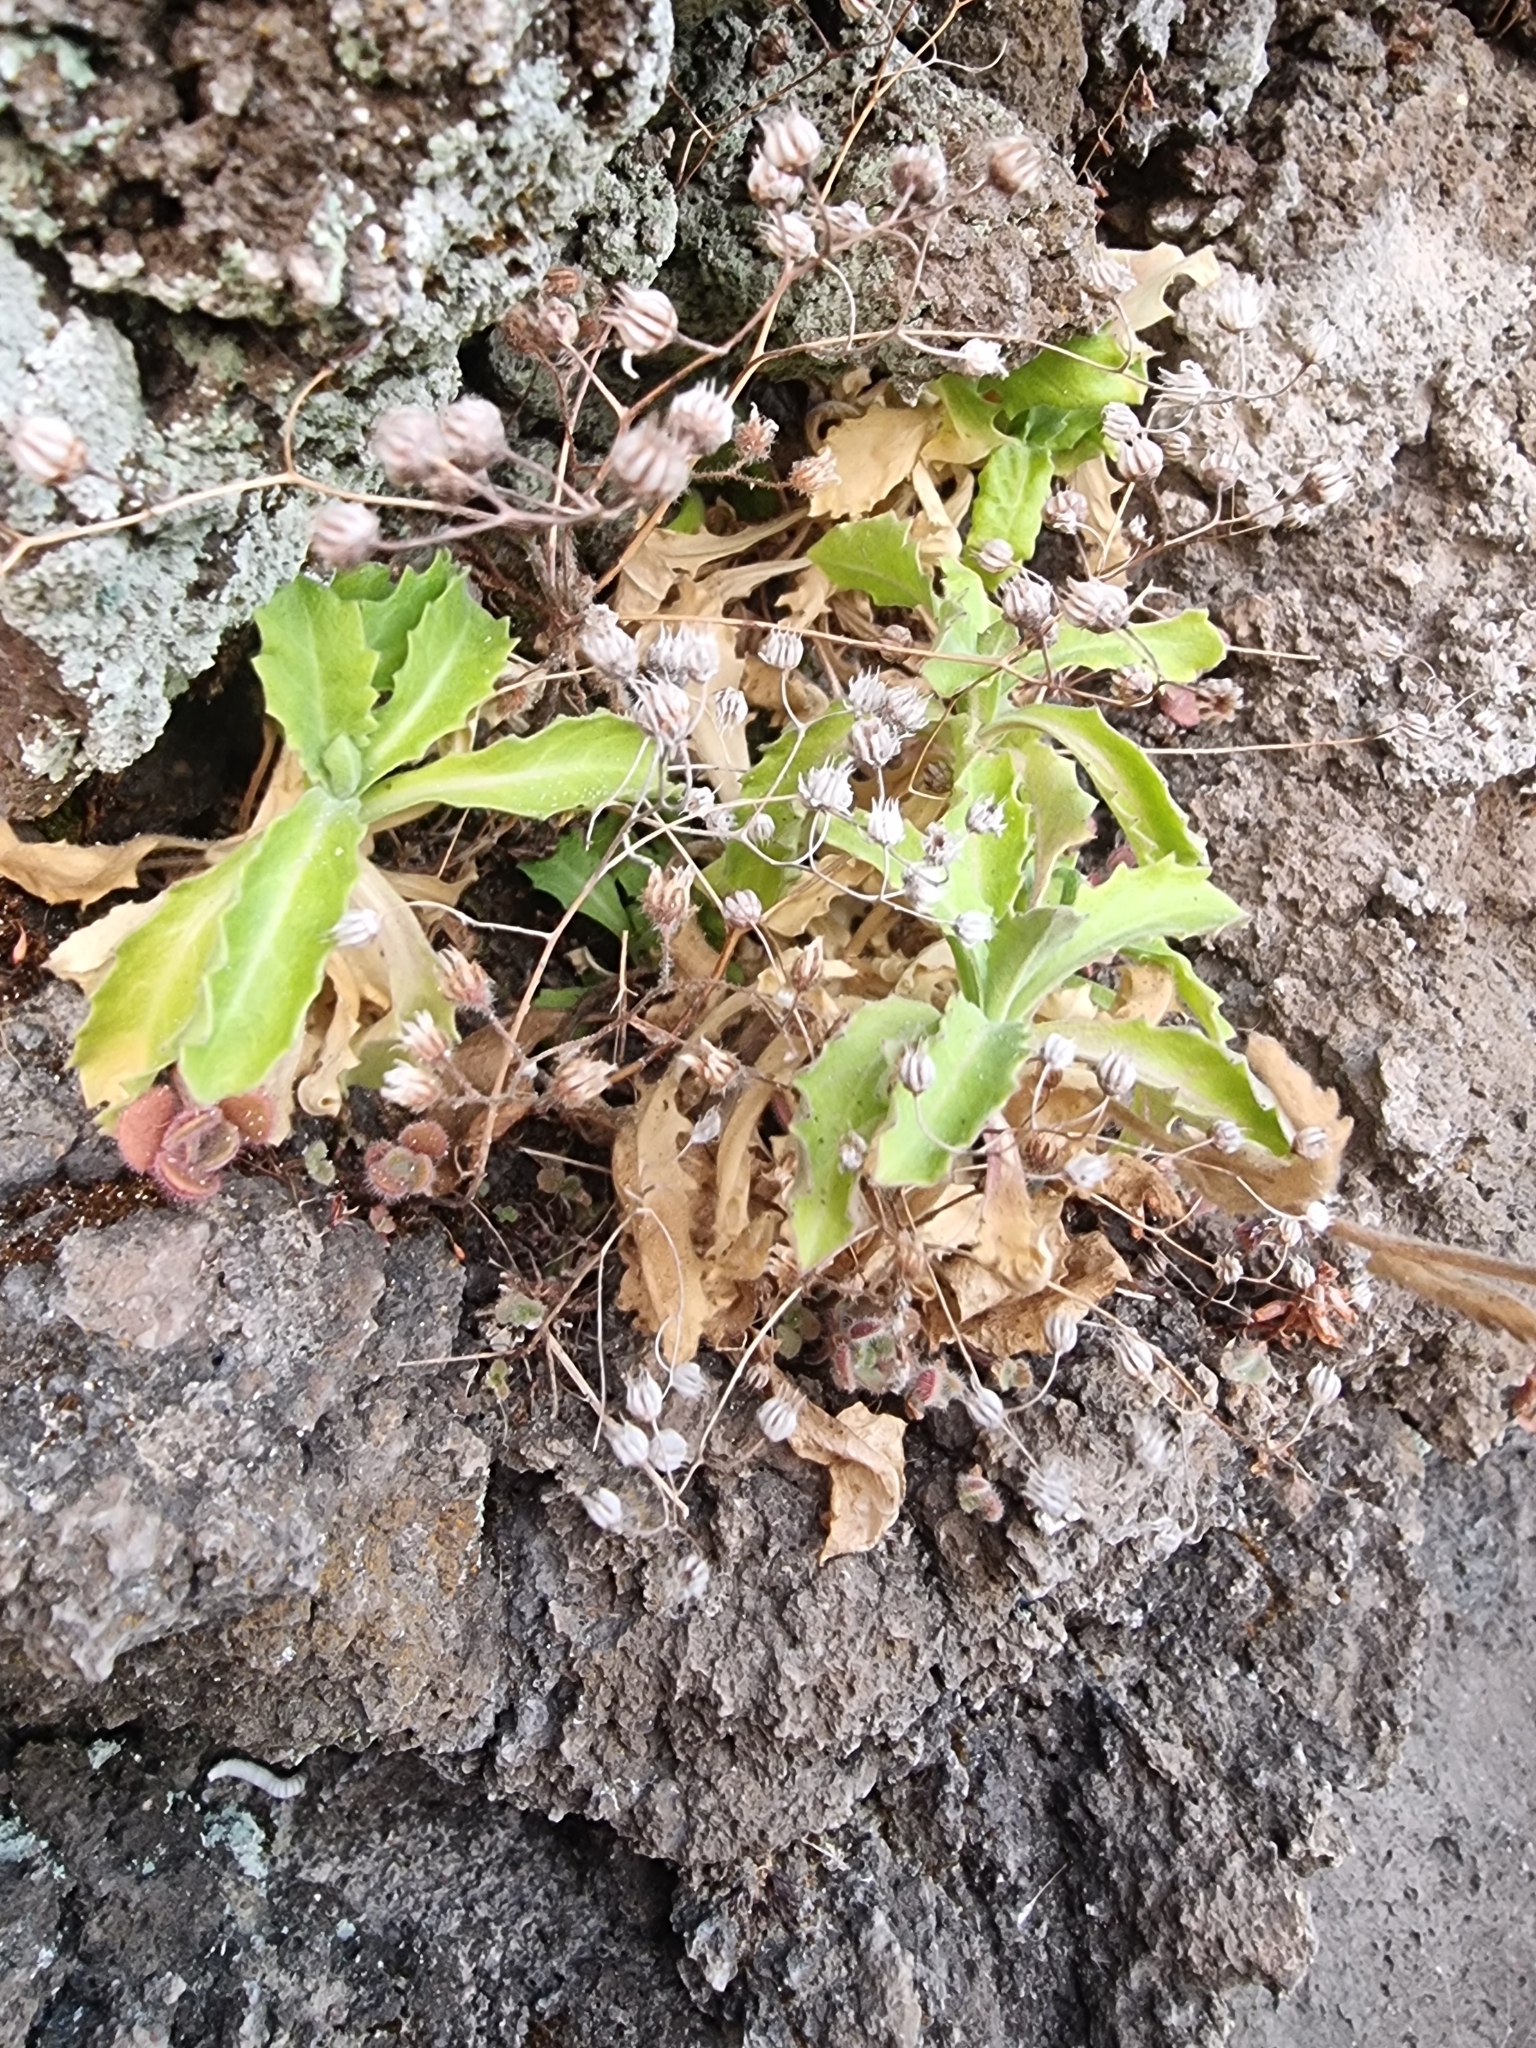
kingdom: Plantae
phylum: Tracheophyta
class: Magnoliopsida
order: Brassicales
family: Brassicaceae
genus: Arabis
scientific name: Arabis caucasica
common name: Gray rockcress
